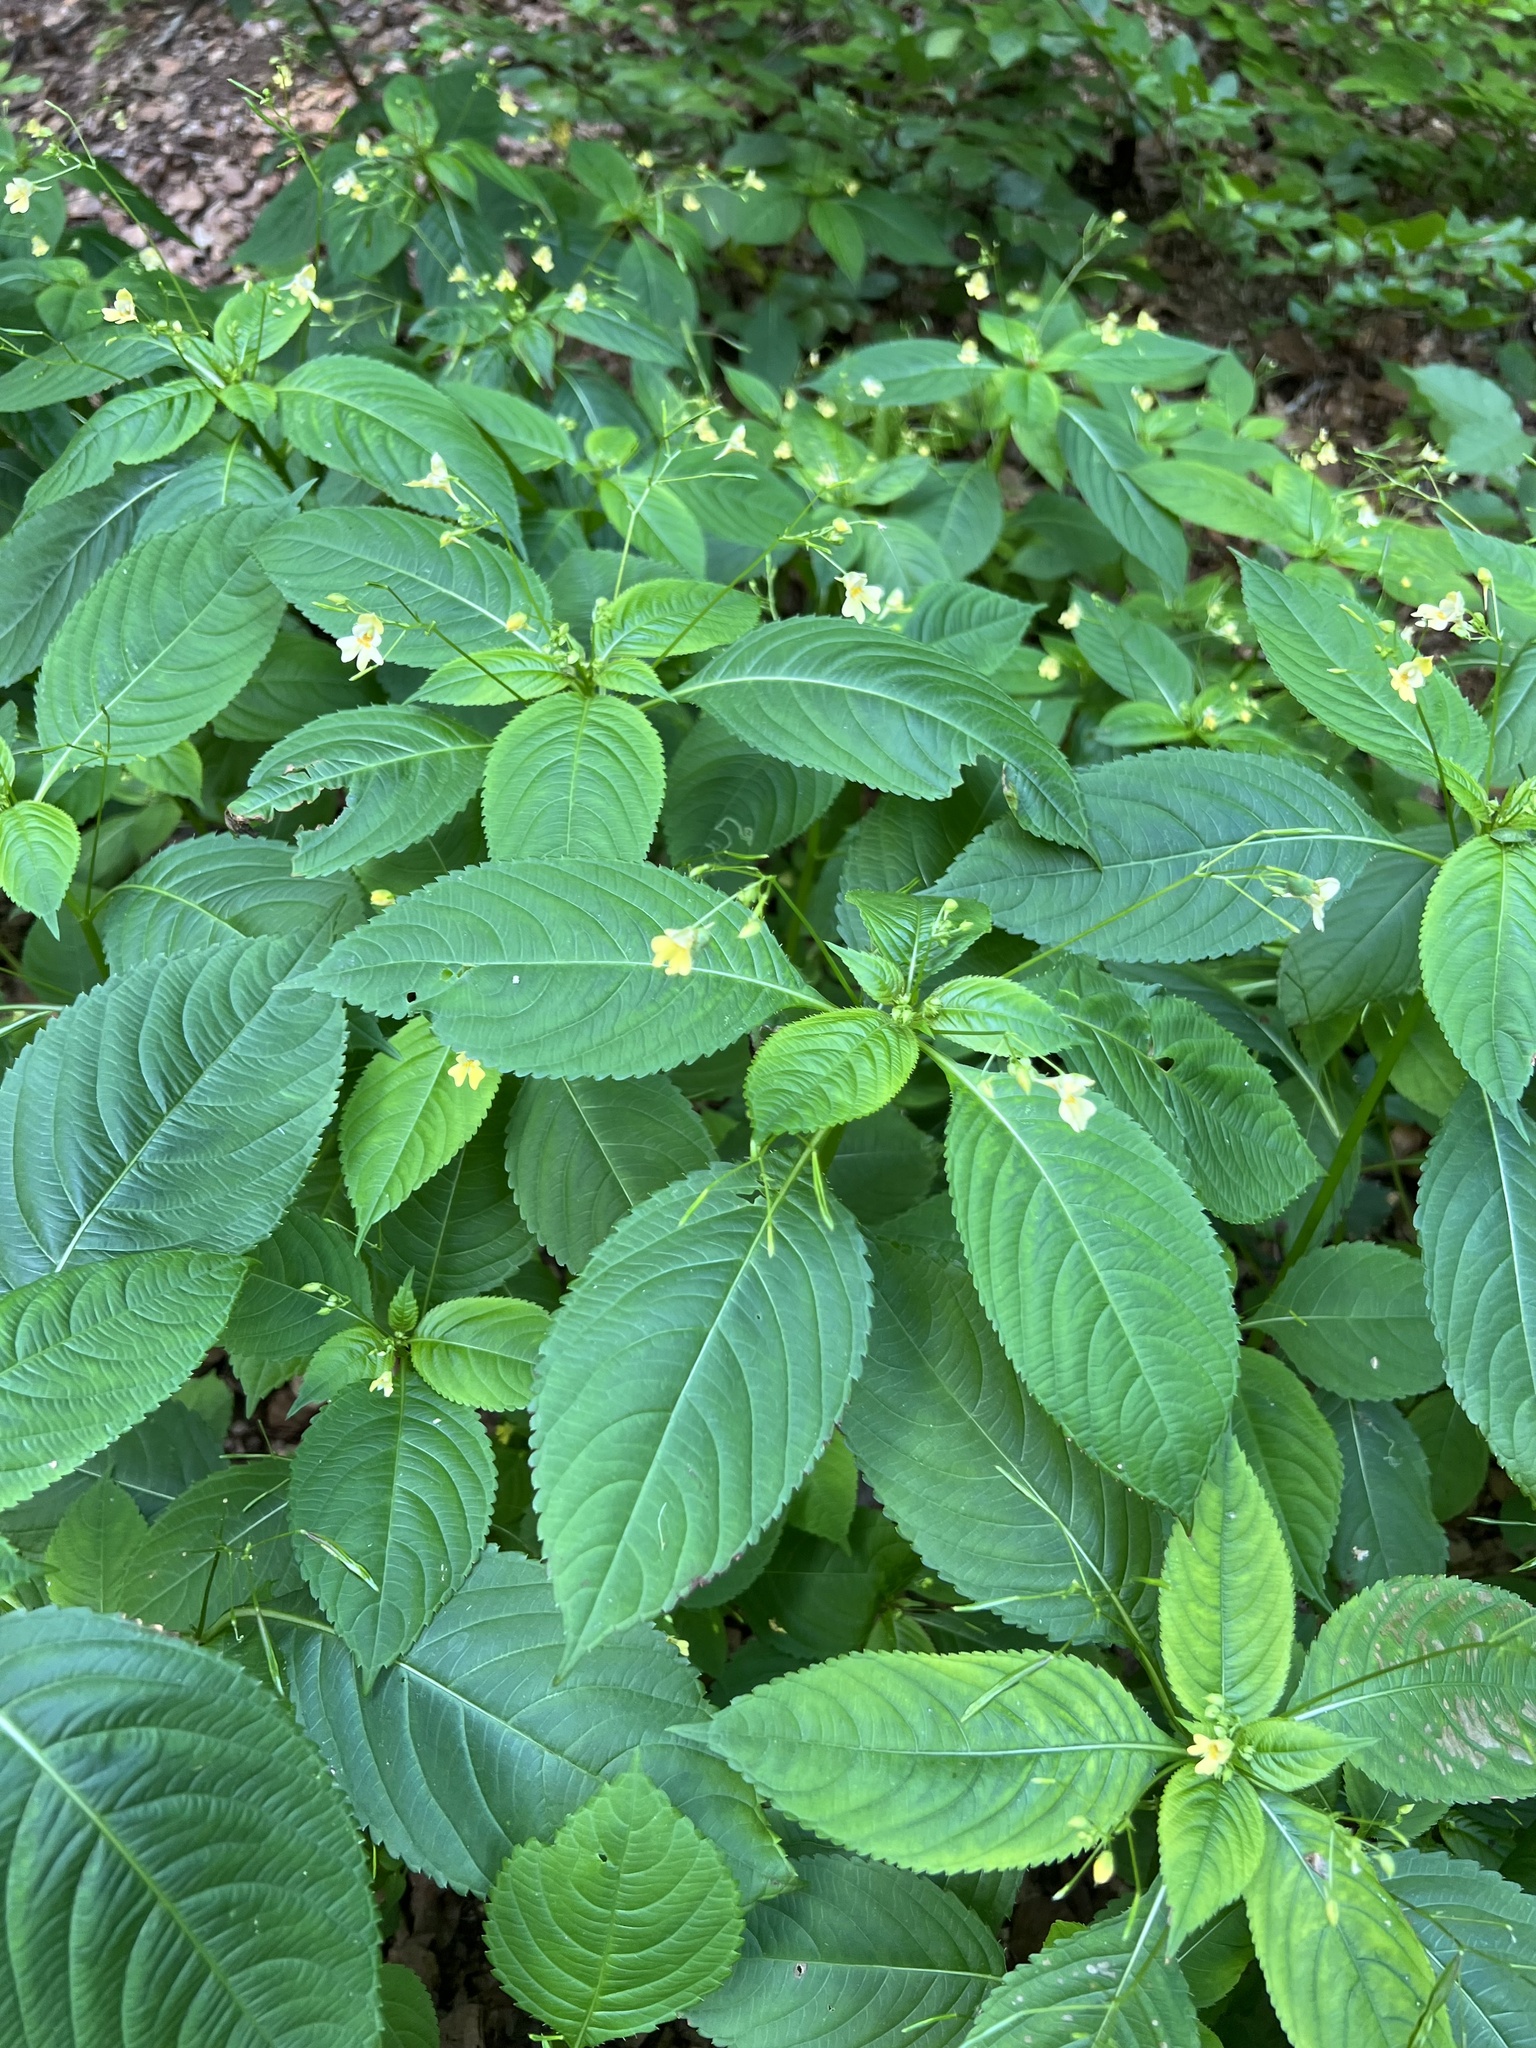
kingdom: Plantae
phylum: Tracheophyta
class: Magnoliopsida
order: Ericales
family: Balsaminaceae
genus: Impatiens
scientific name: Impatiens parviflora
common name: Small balsam
